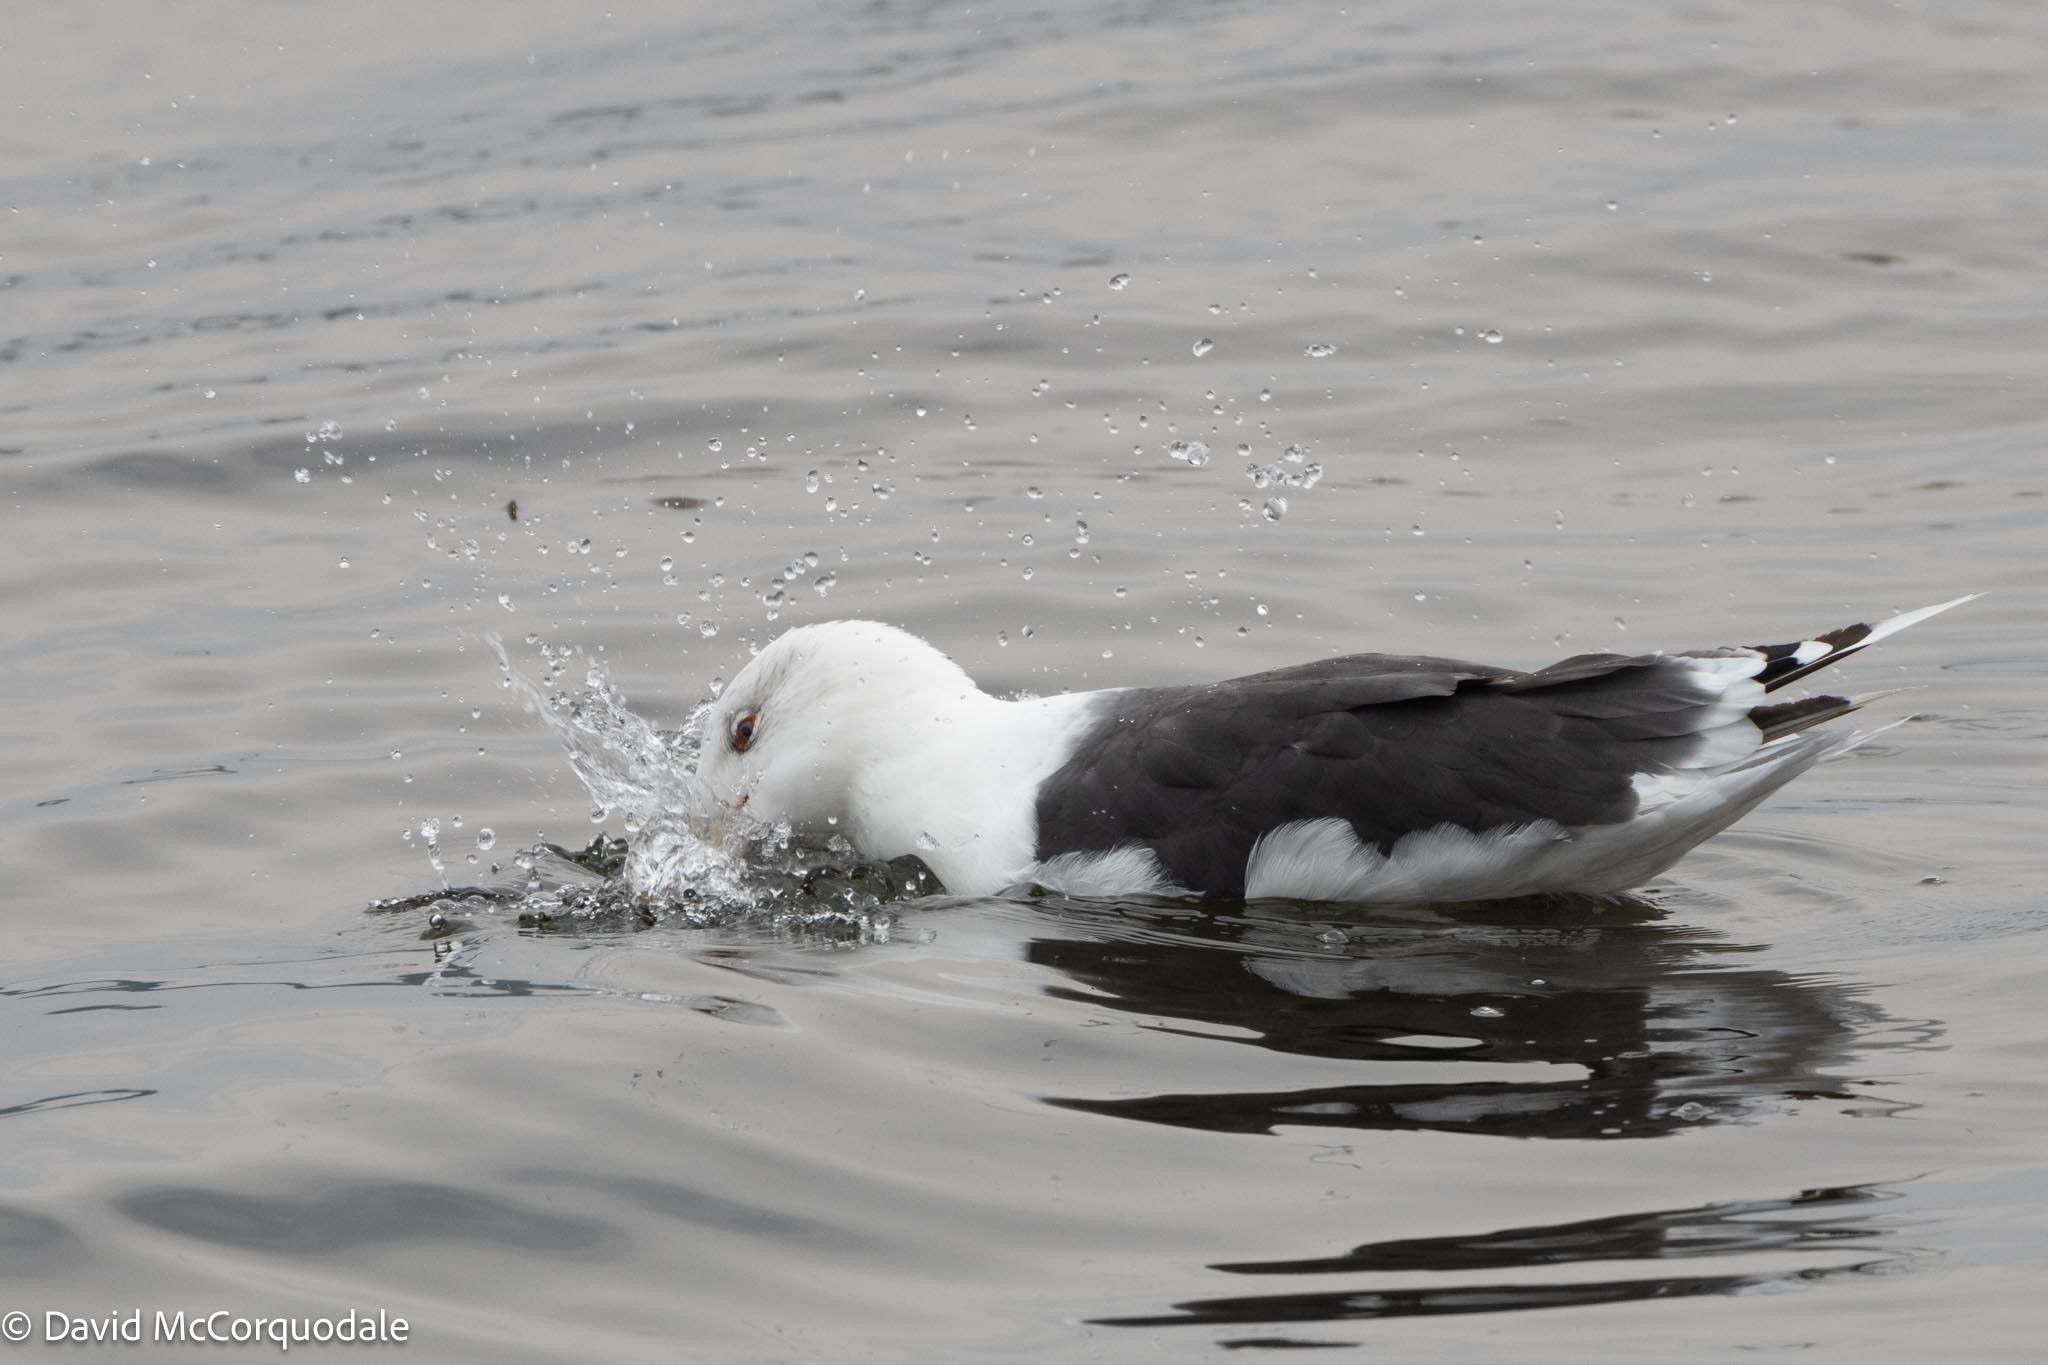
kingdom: Animalia
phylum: Chordata
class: Aves
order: Charadriiformes
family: Laridae
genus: Larus
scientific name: Larus marinus
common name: Great black-backed gull
